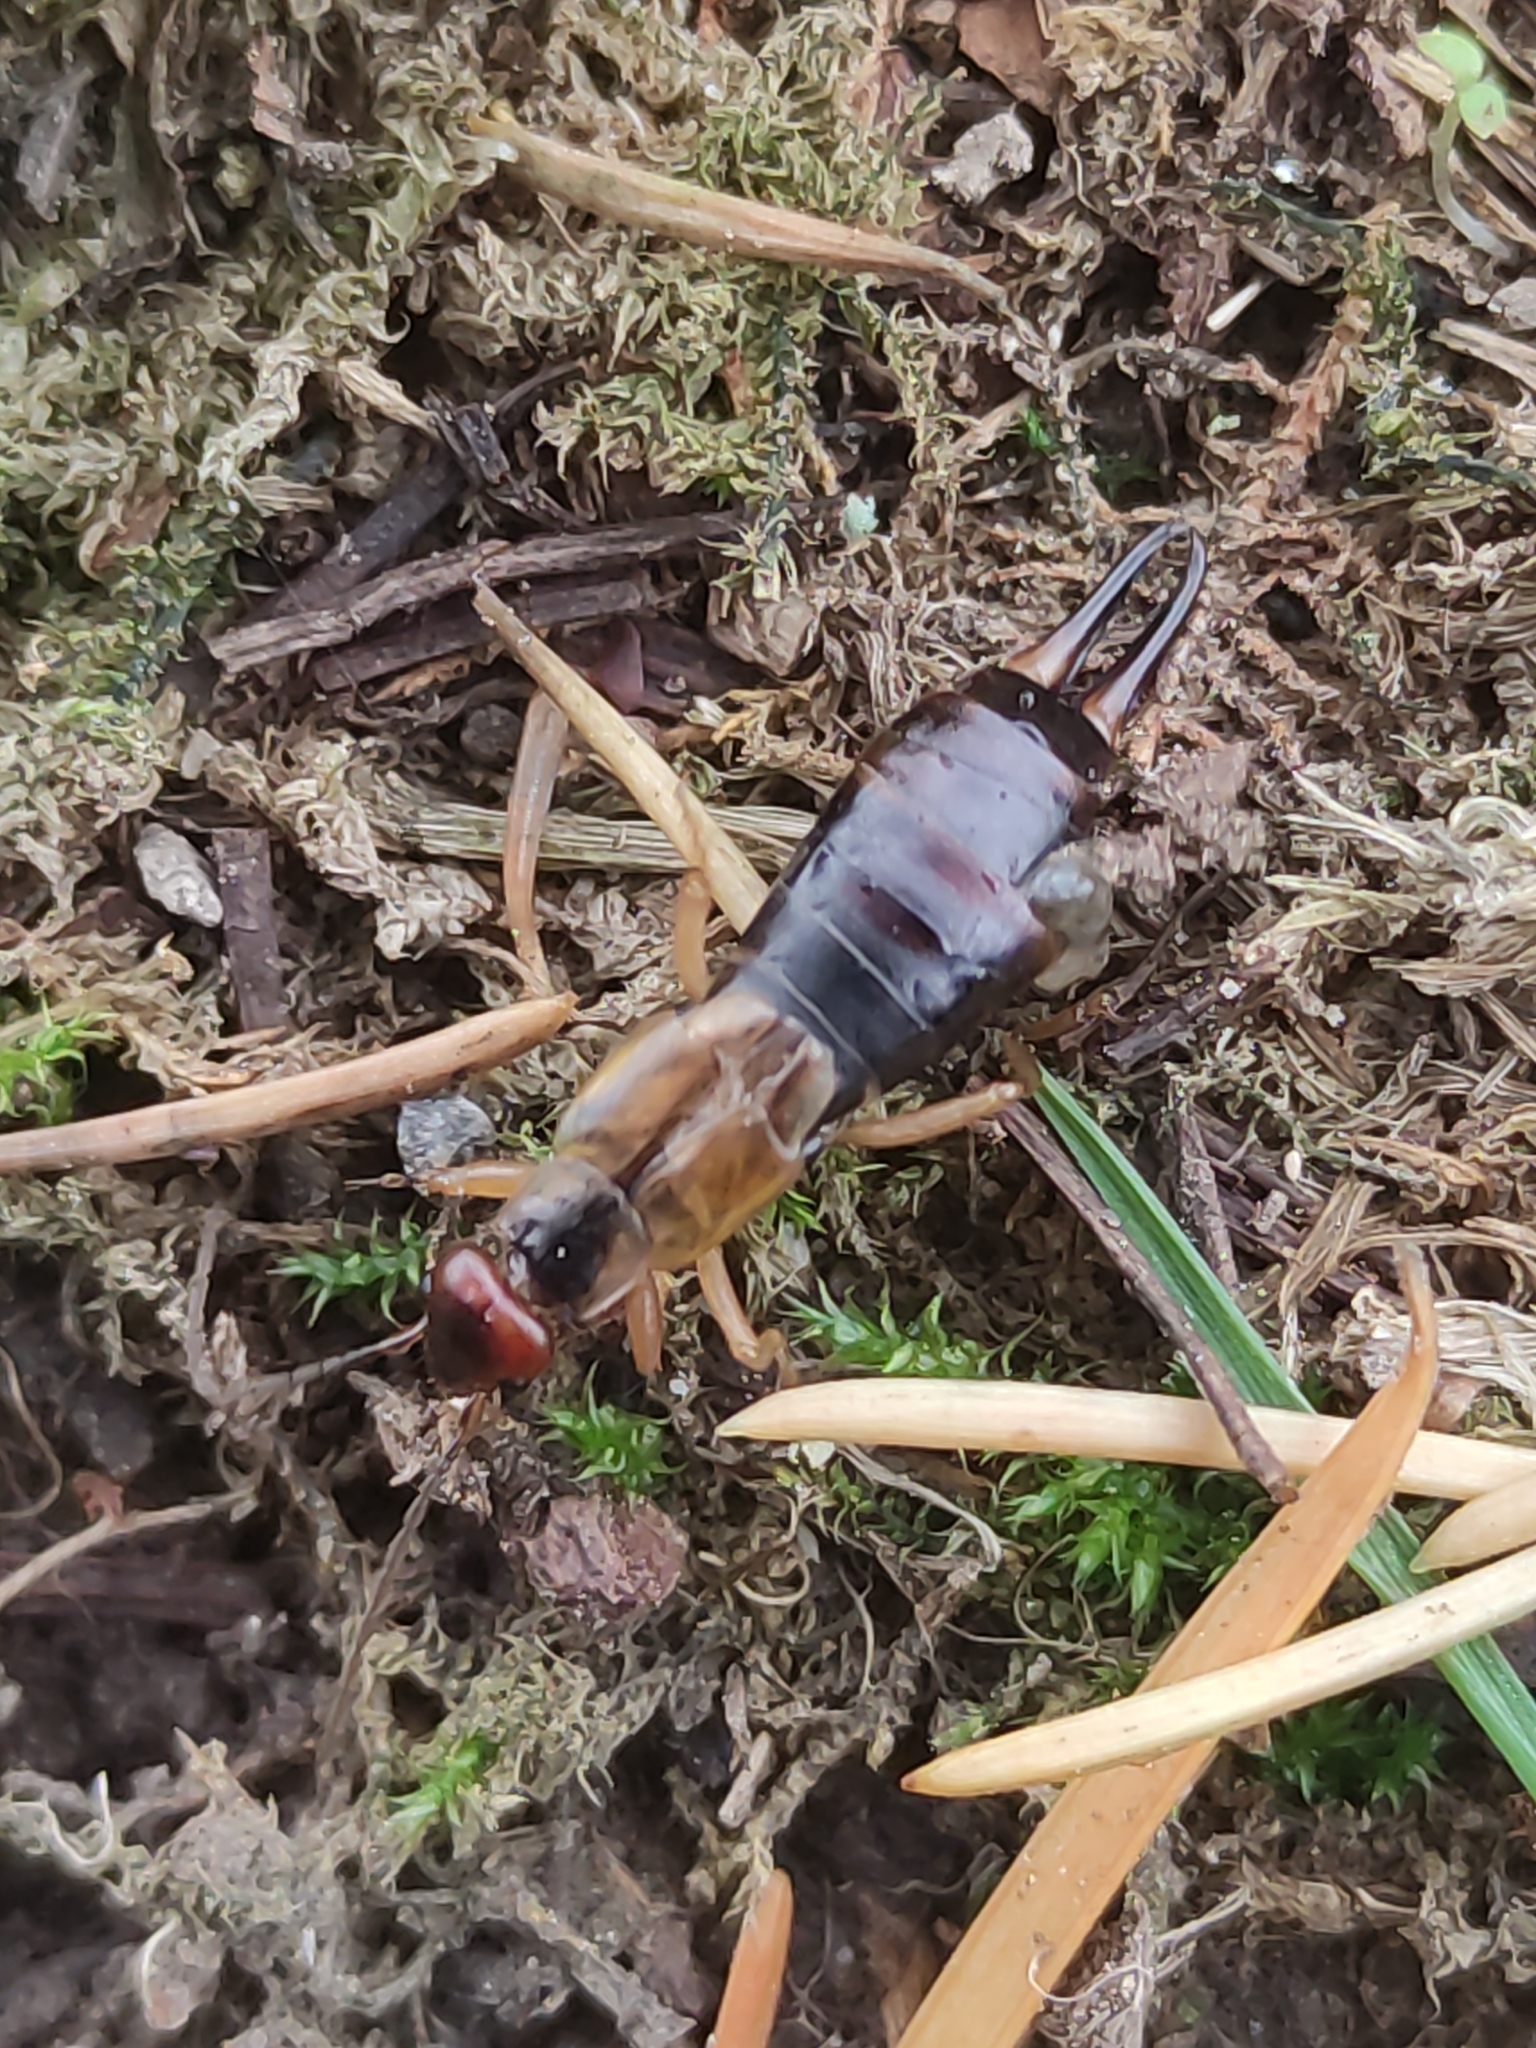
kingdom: Animalia
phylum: Arthropoda
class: Insecta
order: Dermaptera
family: Forficulidae
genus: Forficula
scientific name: Forficula
